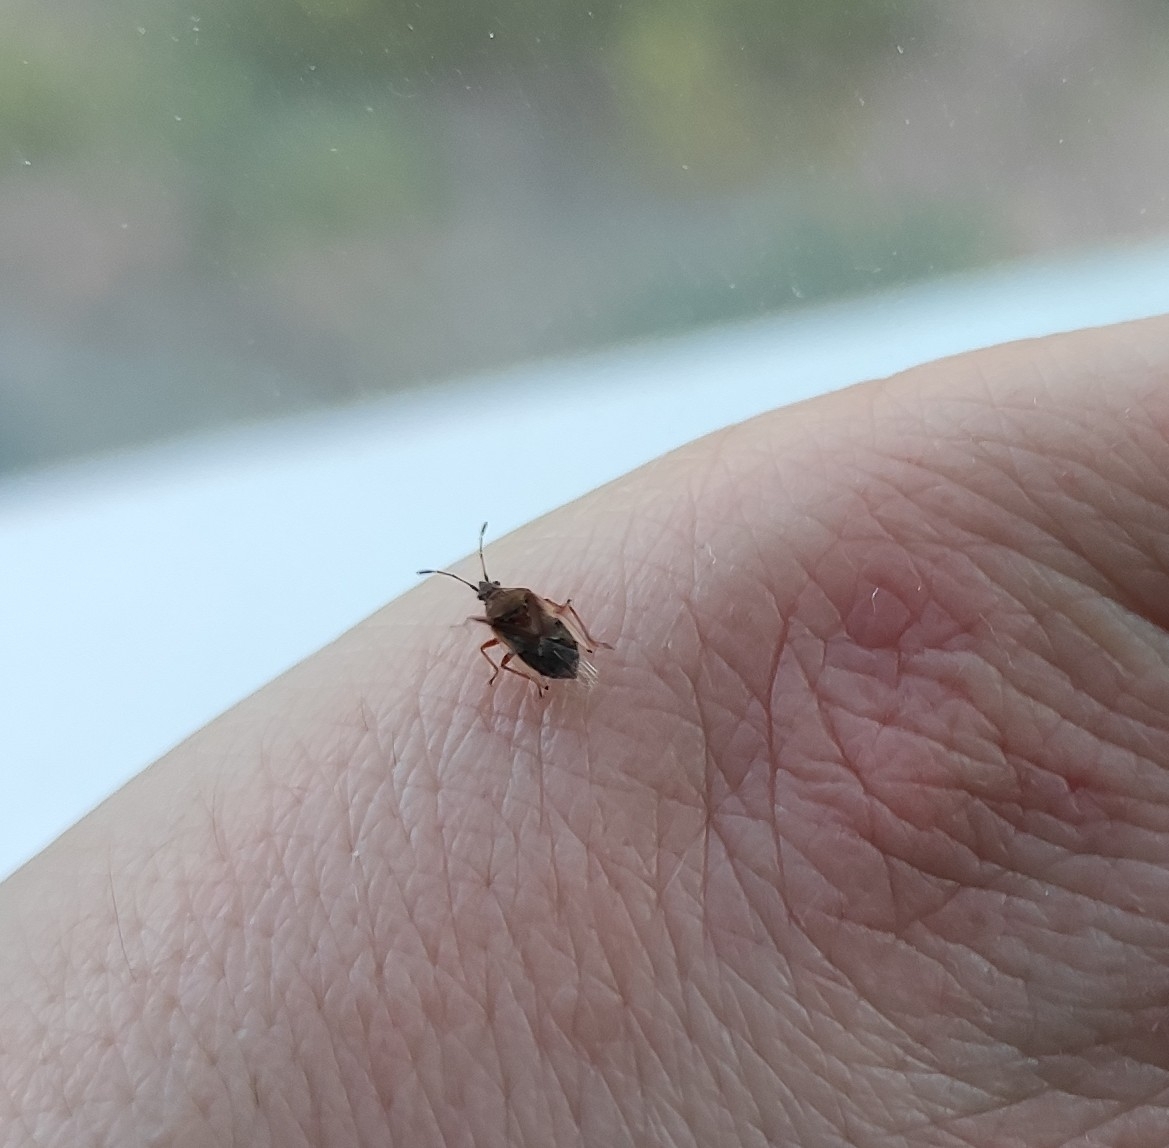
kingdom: Animalia
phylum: Arthropoda
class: Insecta
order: Hemiptera
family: Lygaeidae
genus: Kleidocerys
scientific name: Kleidocerys resedae
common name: Birch catkin bug
